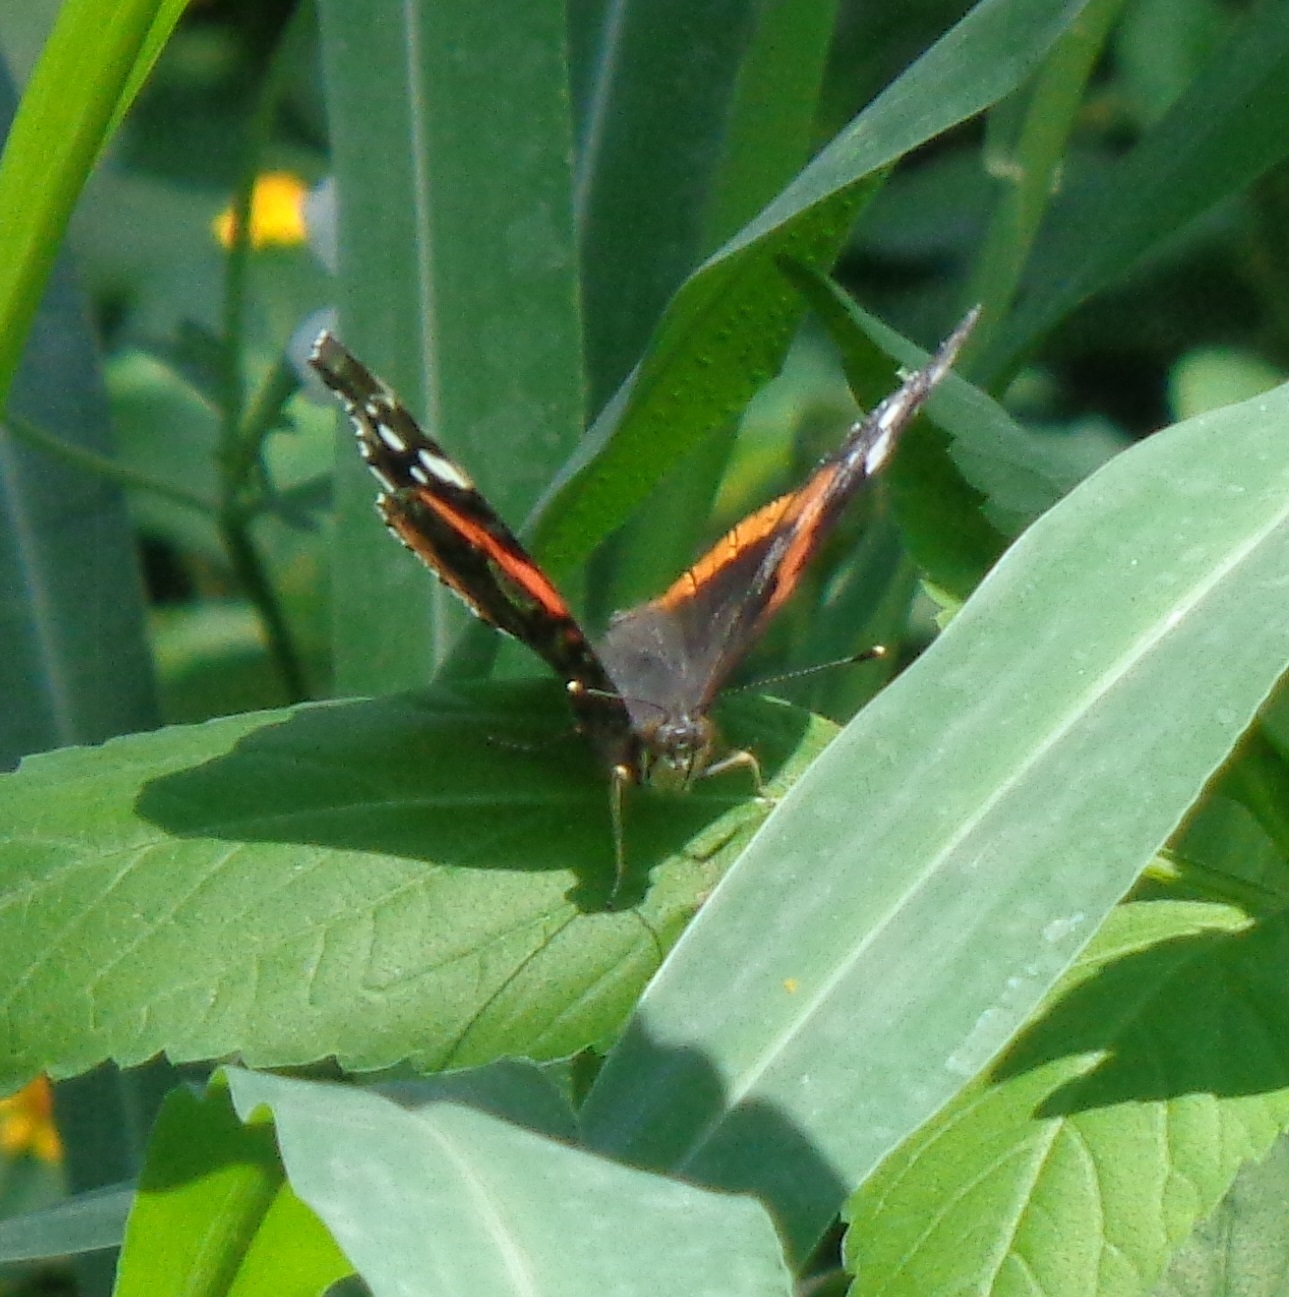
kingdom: Animalia
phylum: Arthropoda
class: Insecta
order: Lepidoptera
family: Nymphalidae
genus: Vanessa
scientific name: Vanessa atalanta
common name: Red admiral
